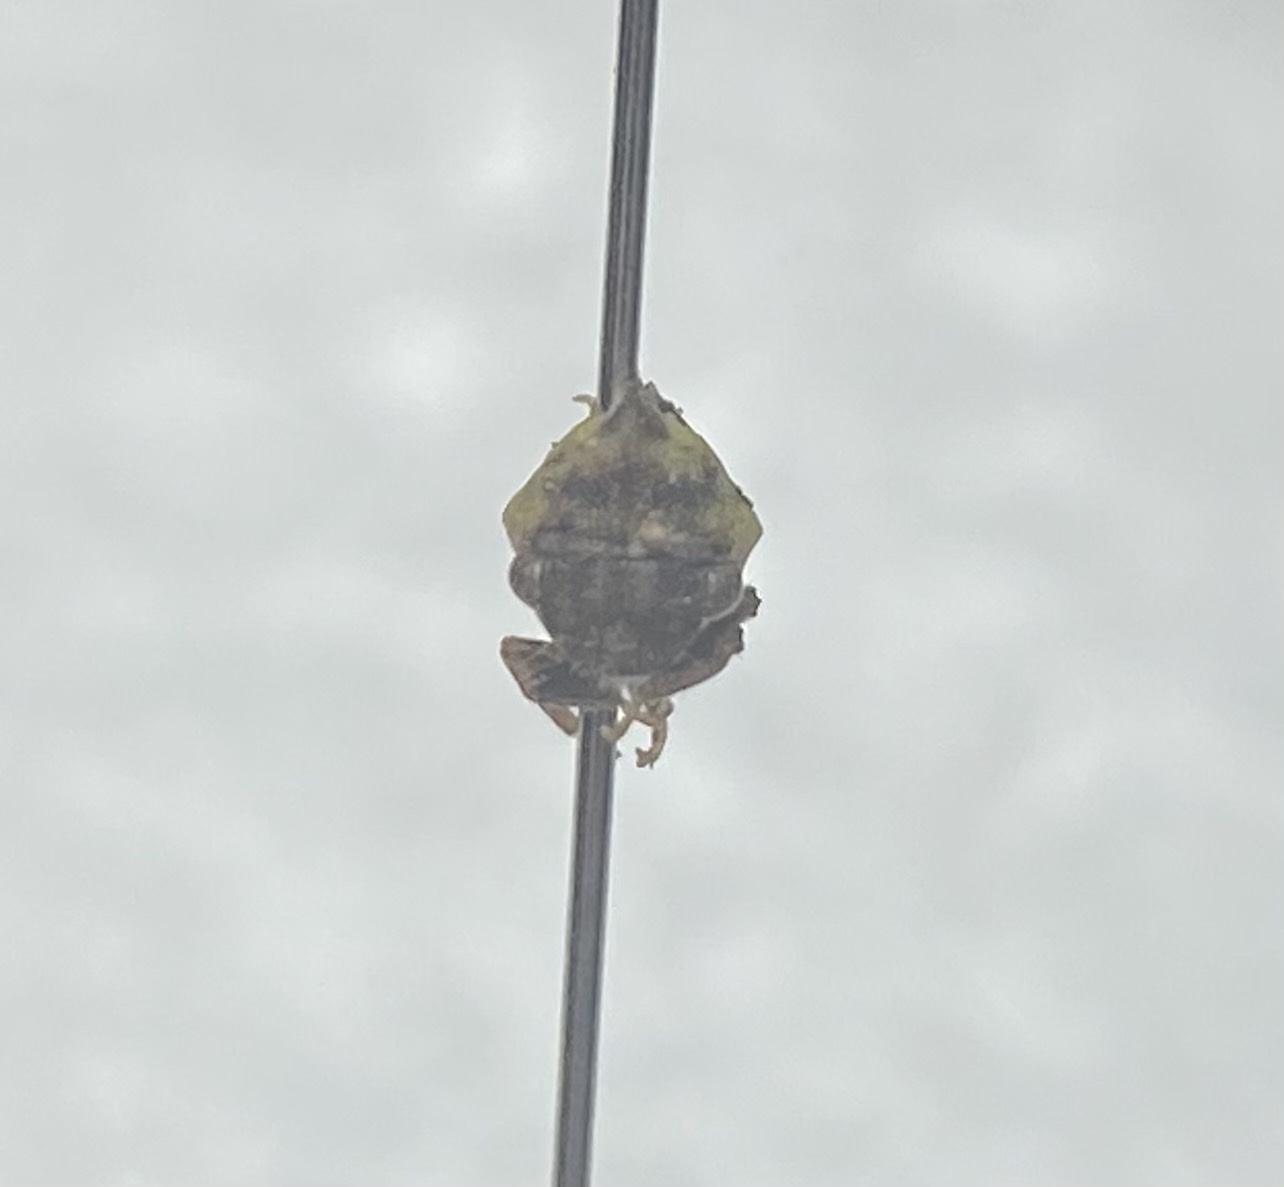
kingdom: Animalia
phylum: Arthropoda
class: Insecta
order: Hemiptera
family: Membracidae
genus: Publilia
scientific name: Publilia porrecta
